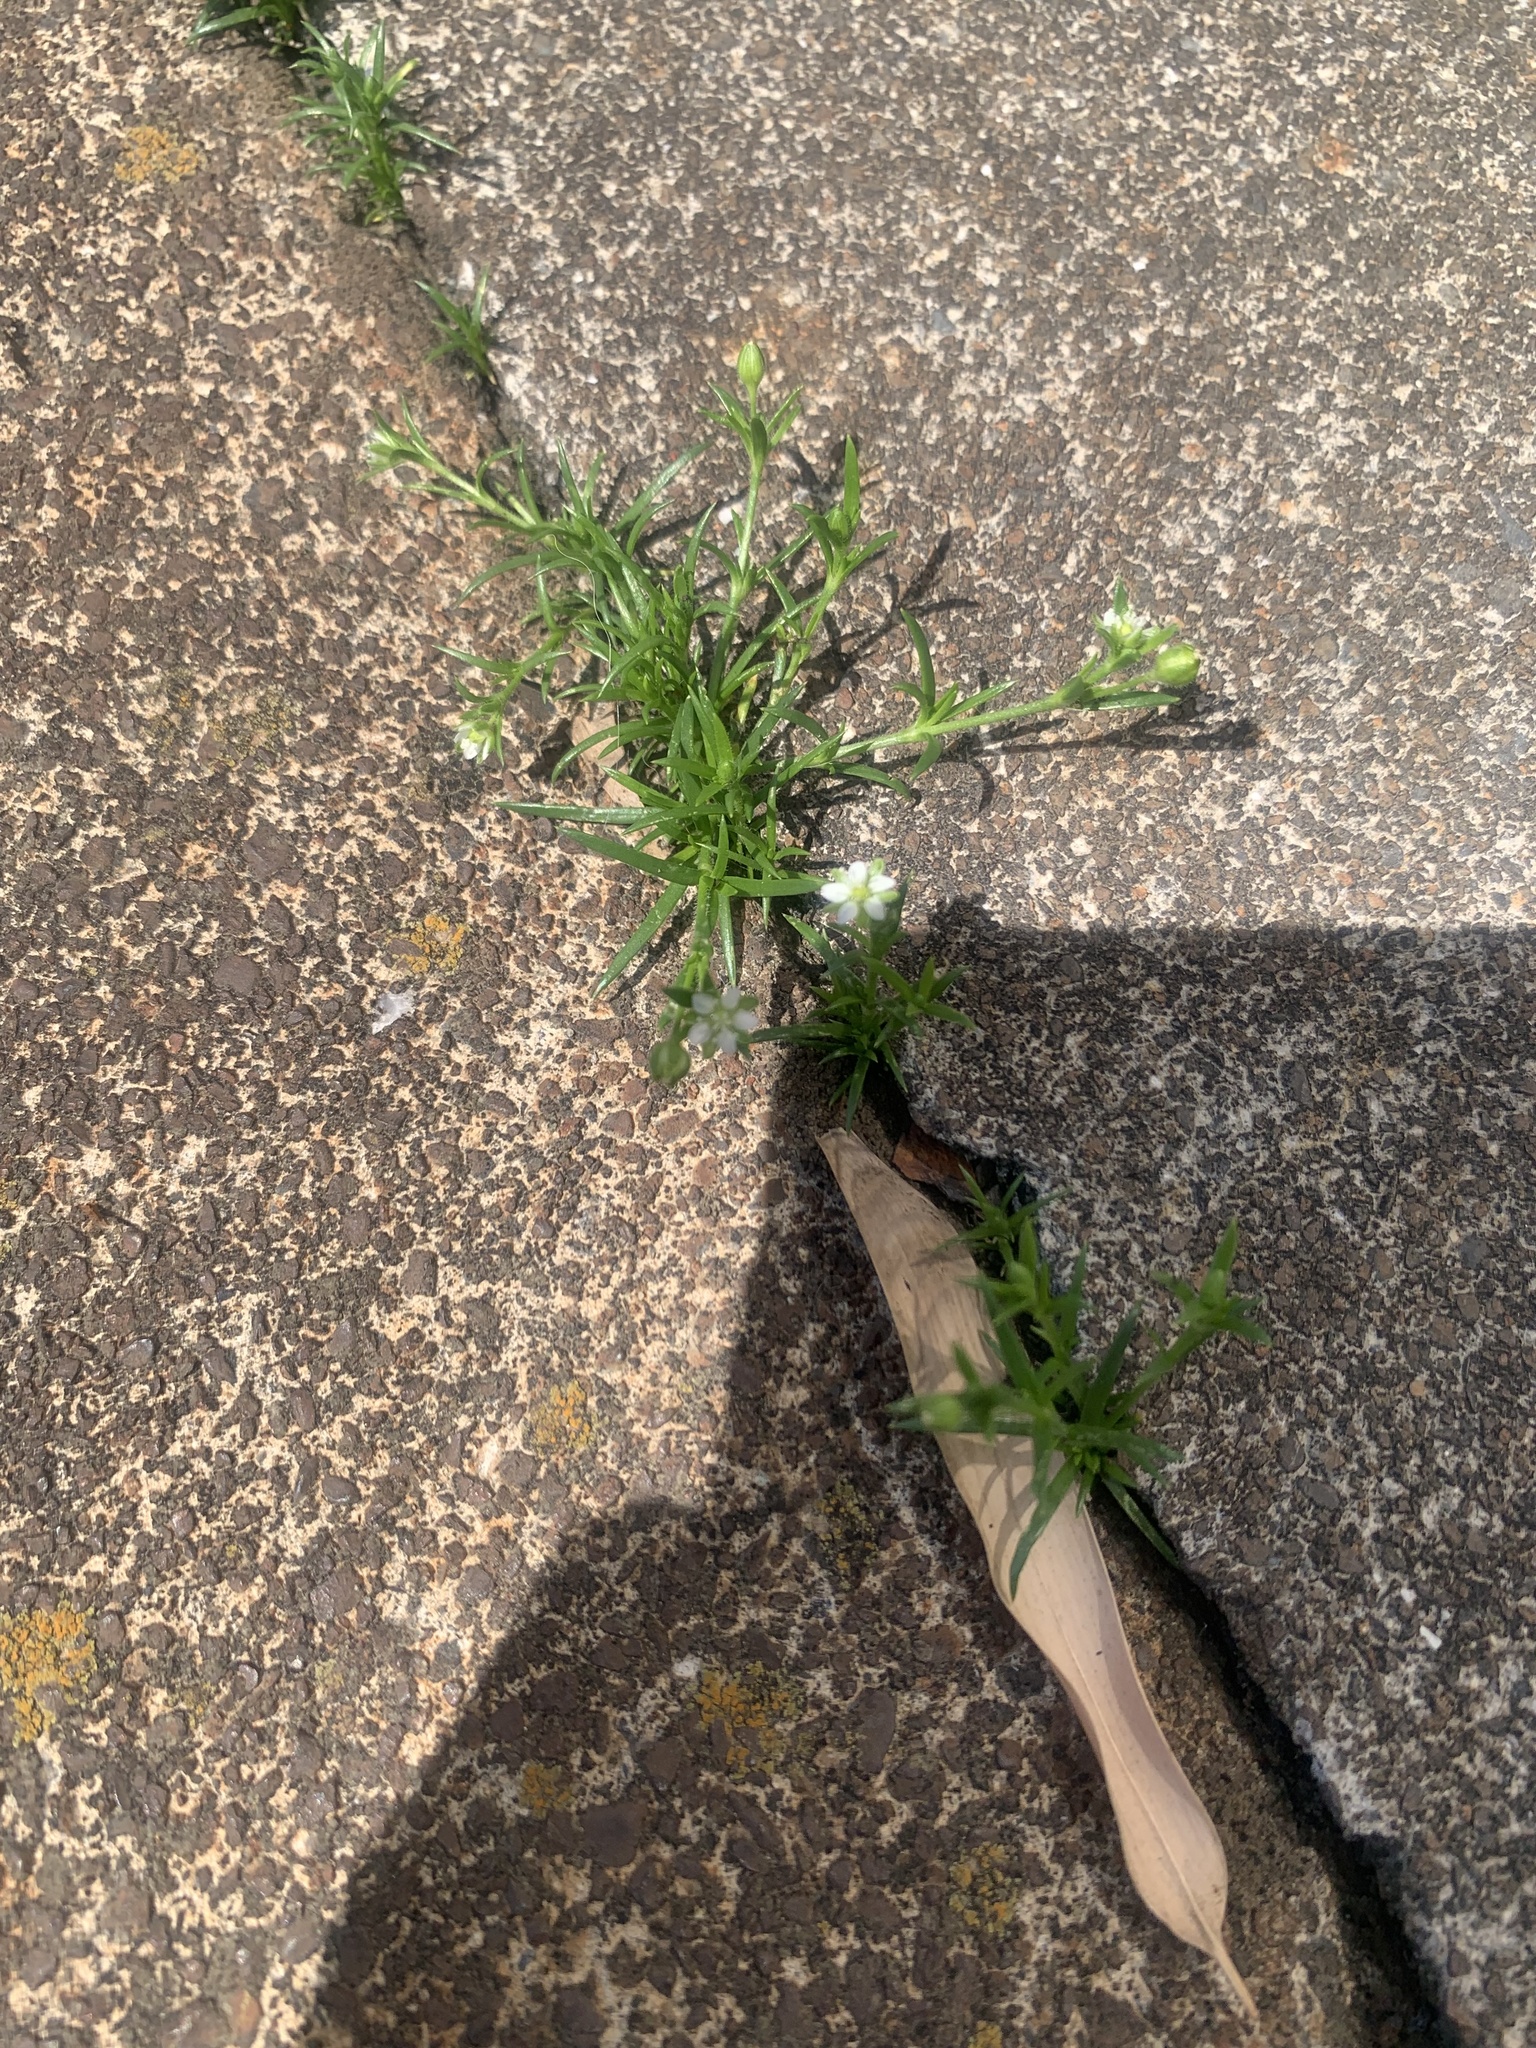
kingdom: Plantae
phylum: Tracheophyta
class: Magnoliopsida
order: Caryophyllales
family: Caryophyllaceae
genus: Sagina
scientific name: Sagina japonica
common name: Japanese pearlwort
